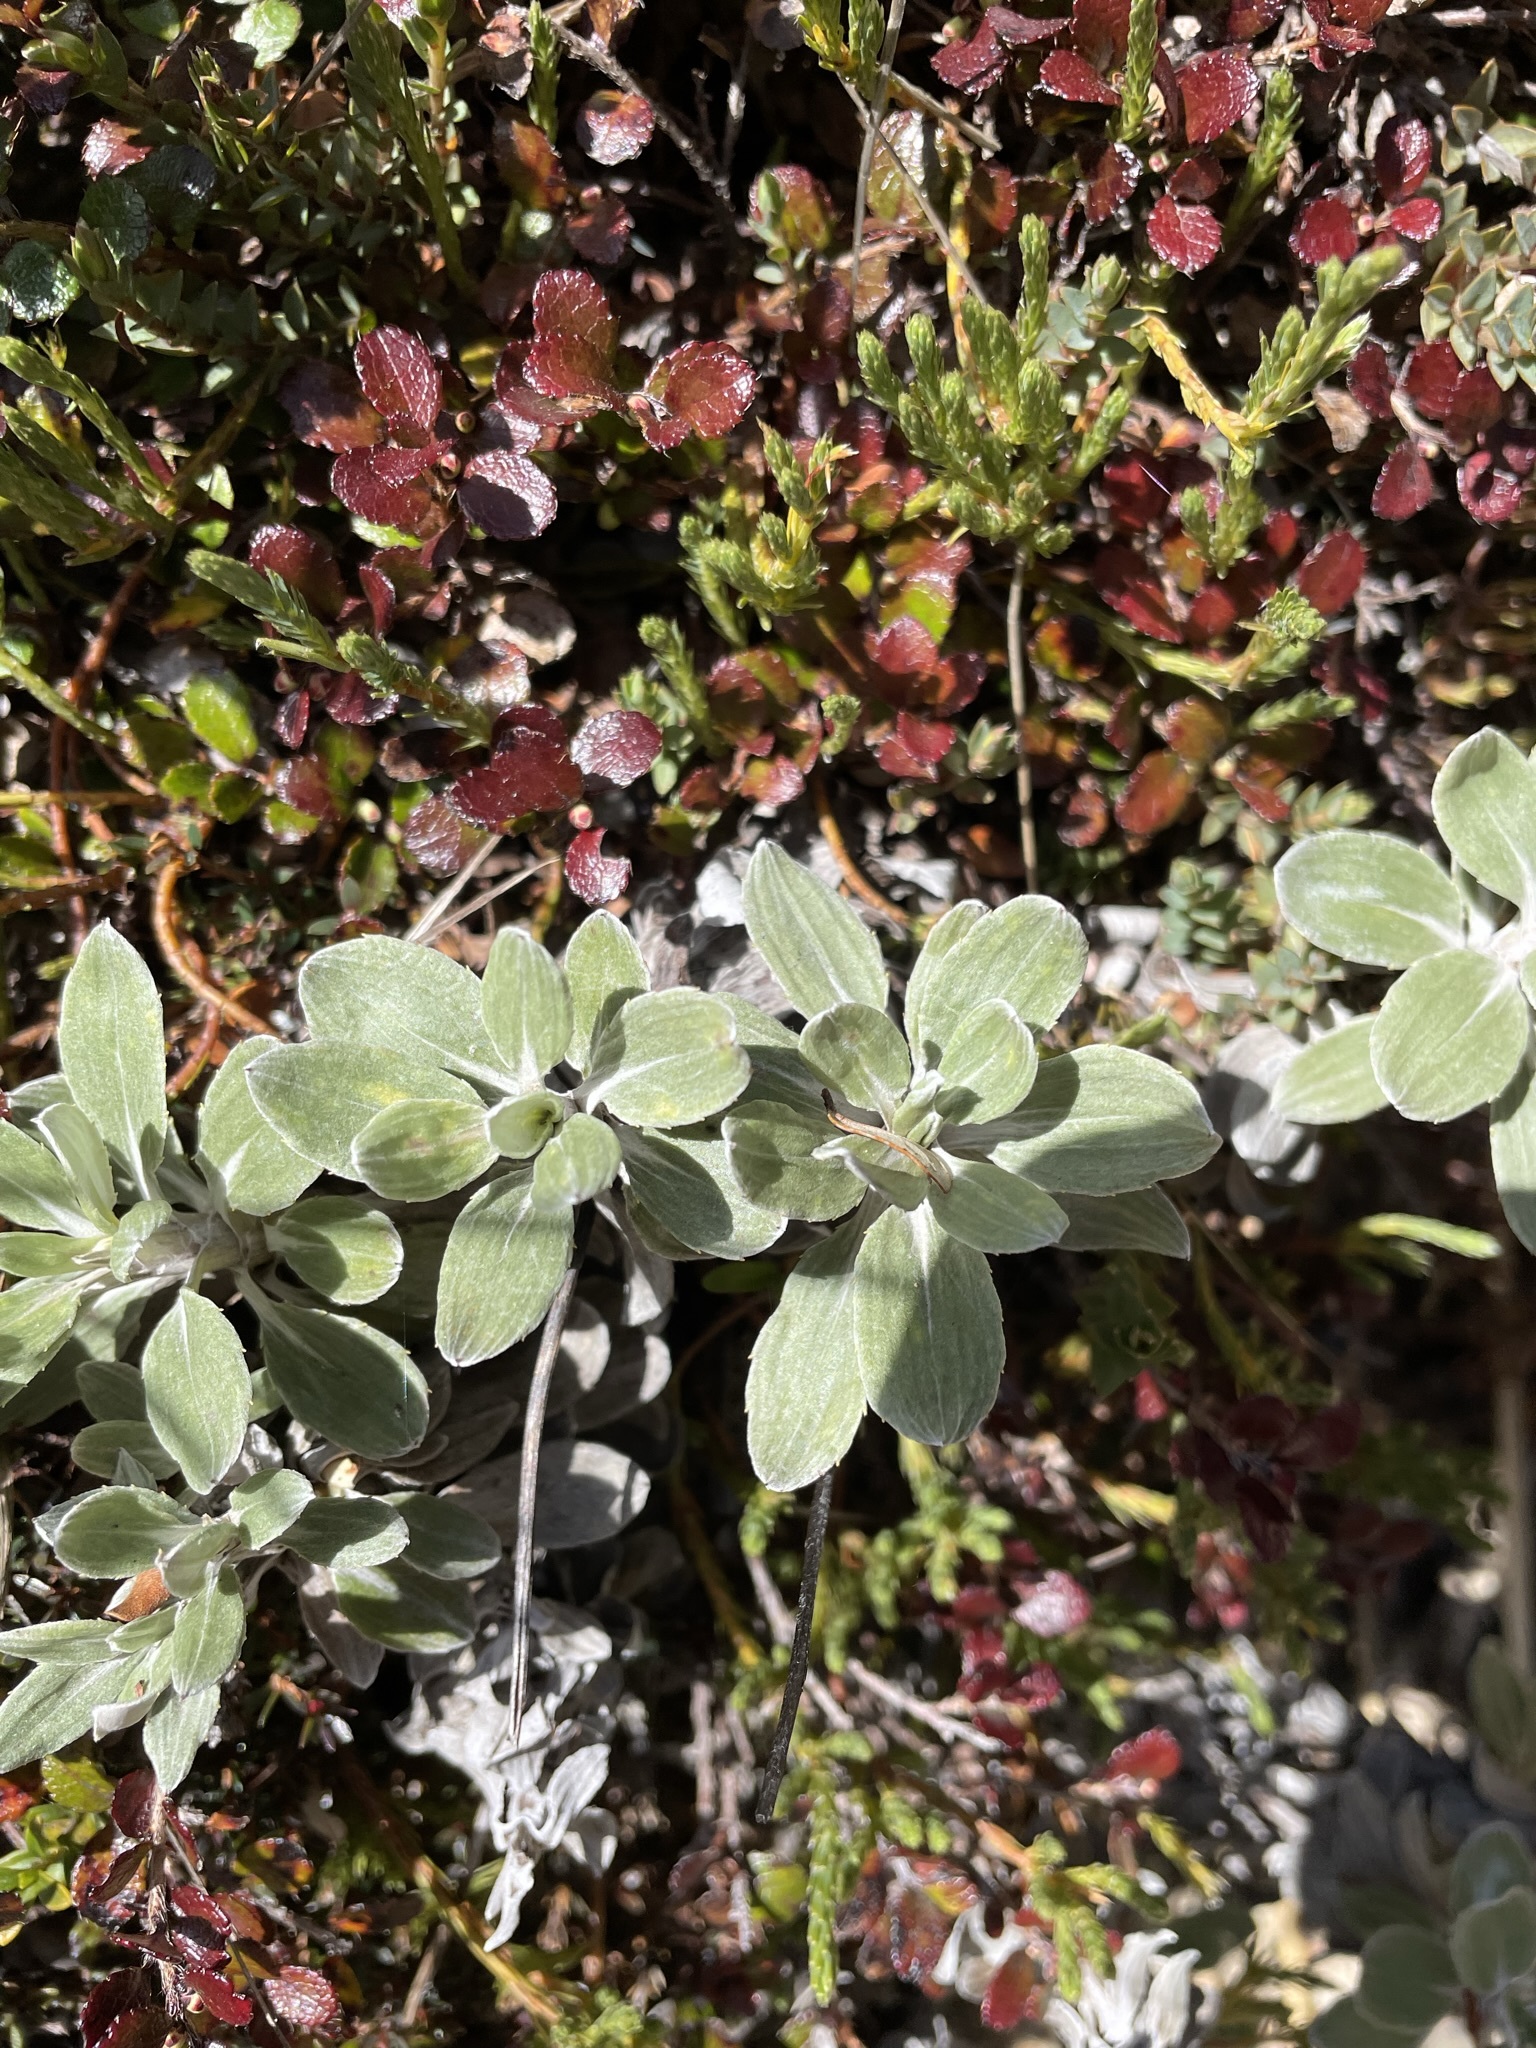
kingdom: Plantae
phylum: Tracheophyta
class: Magnoliopsida
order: Asterales
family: Asteraceae
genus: Celmisia
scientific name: Celmisia discolor
